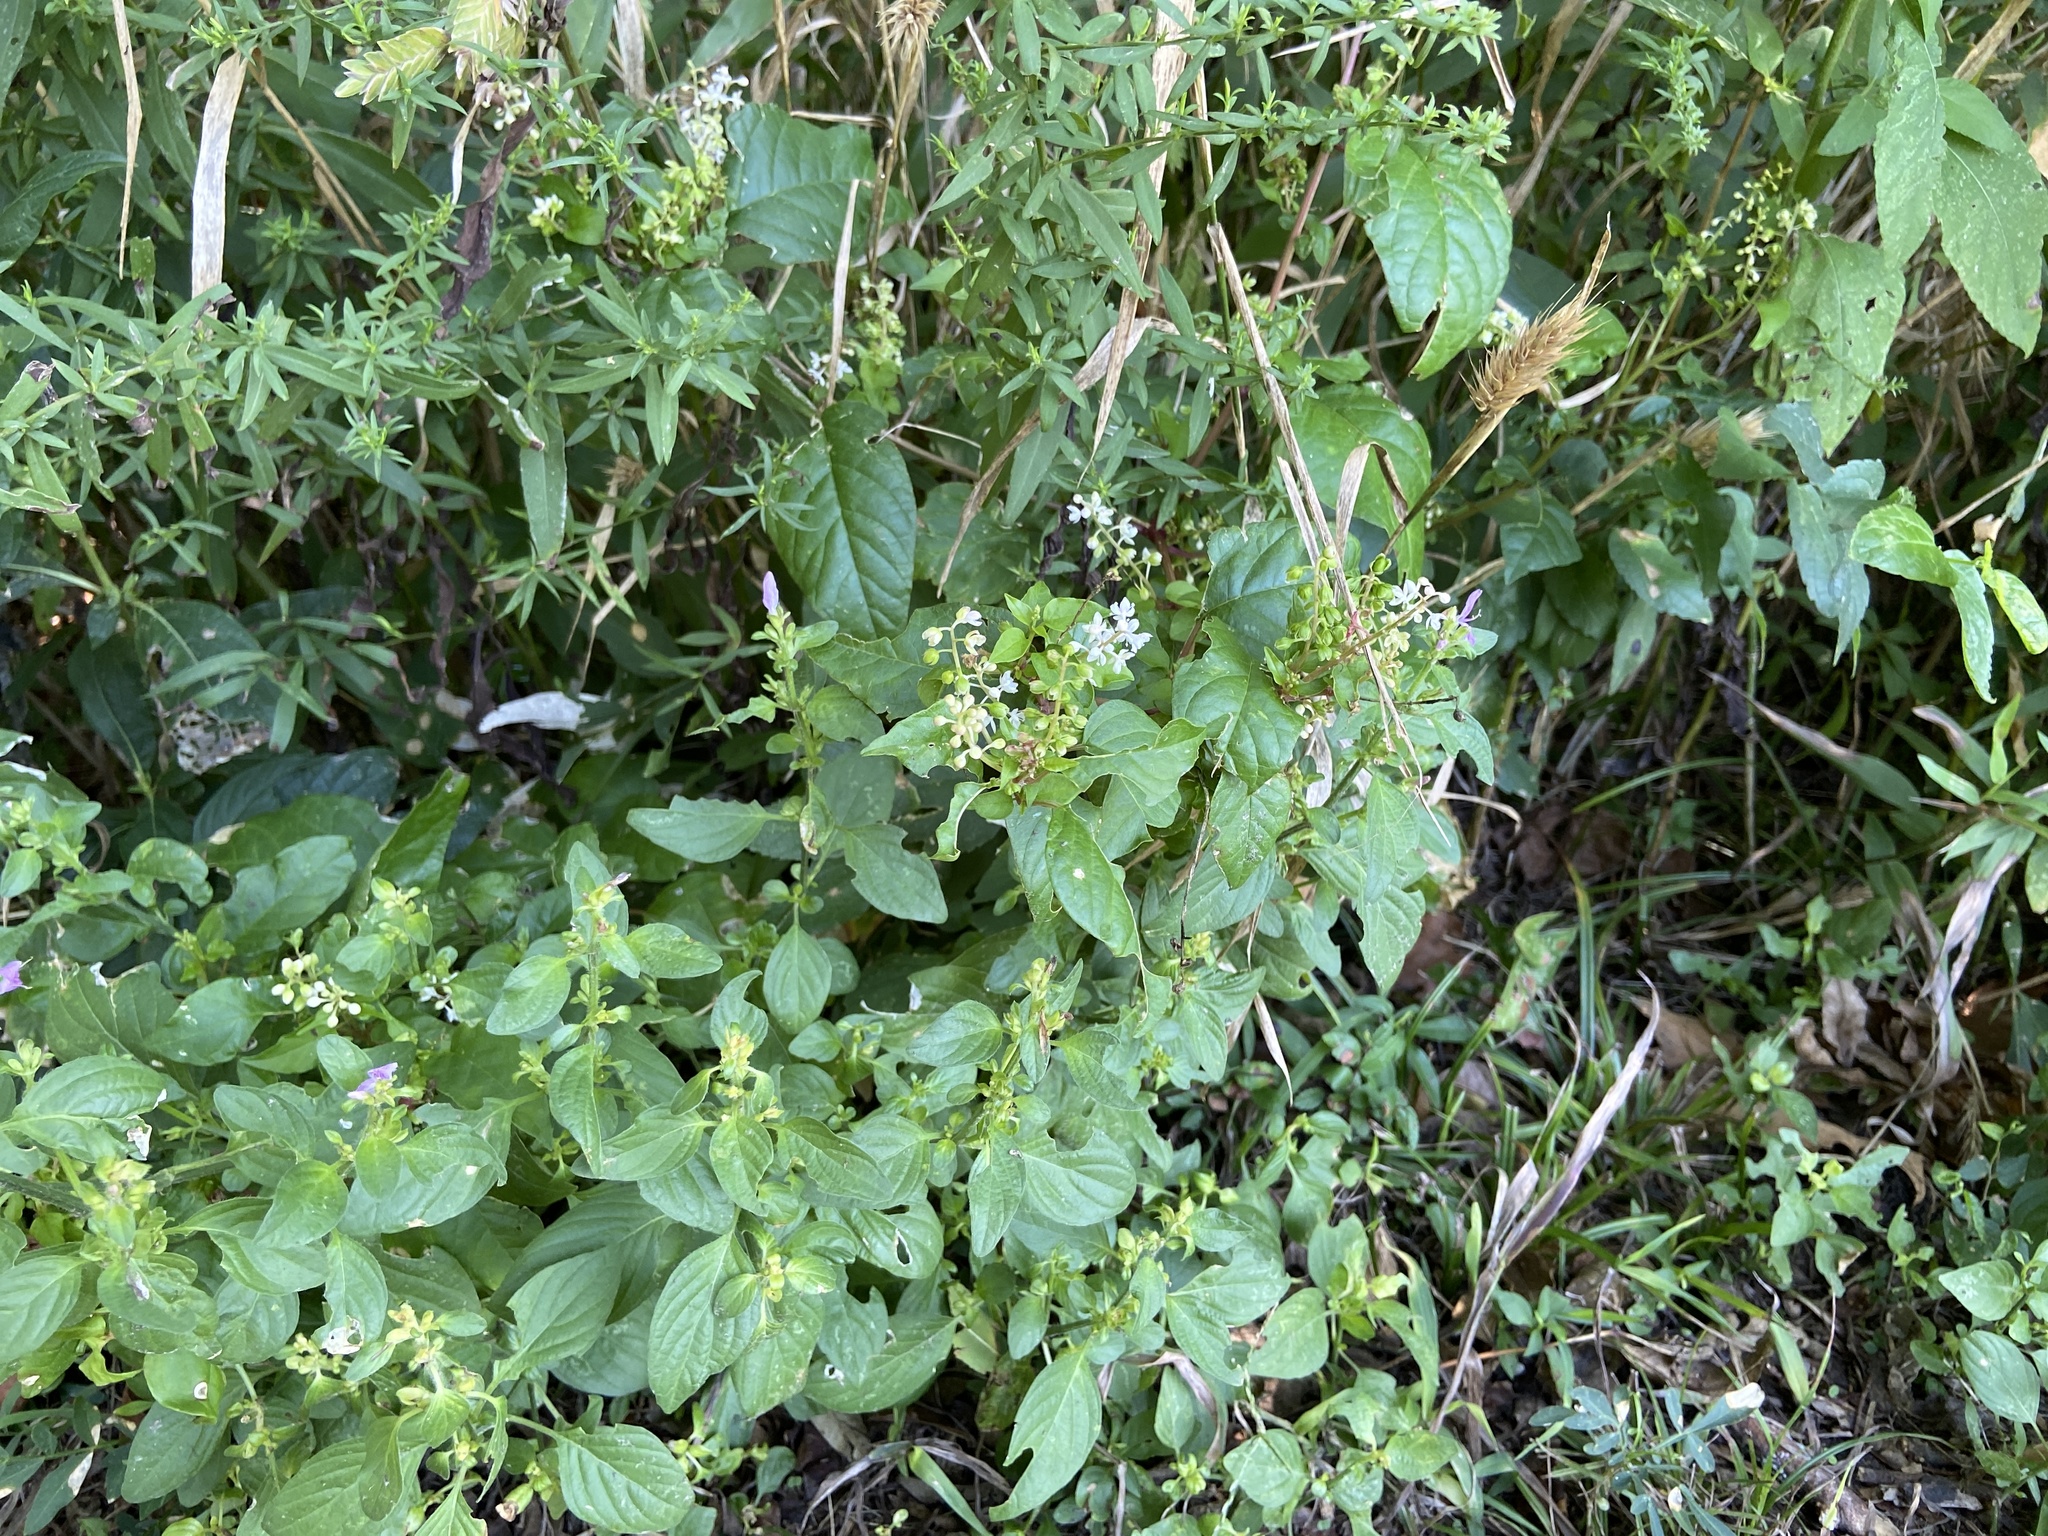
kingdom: Plantae
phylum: Tracheophyta
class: Magnoliopsida
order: Caryophyllales
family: Phytolaccaceae
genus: Rivina
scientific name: Rivina humilis
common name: Rougeplant
